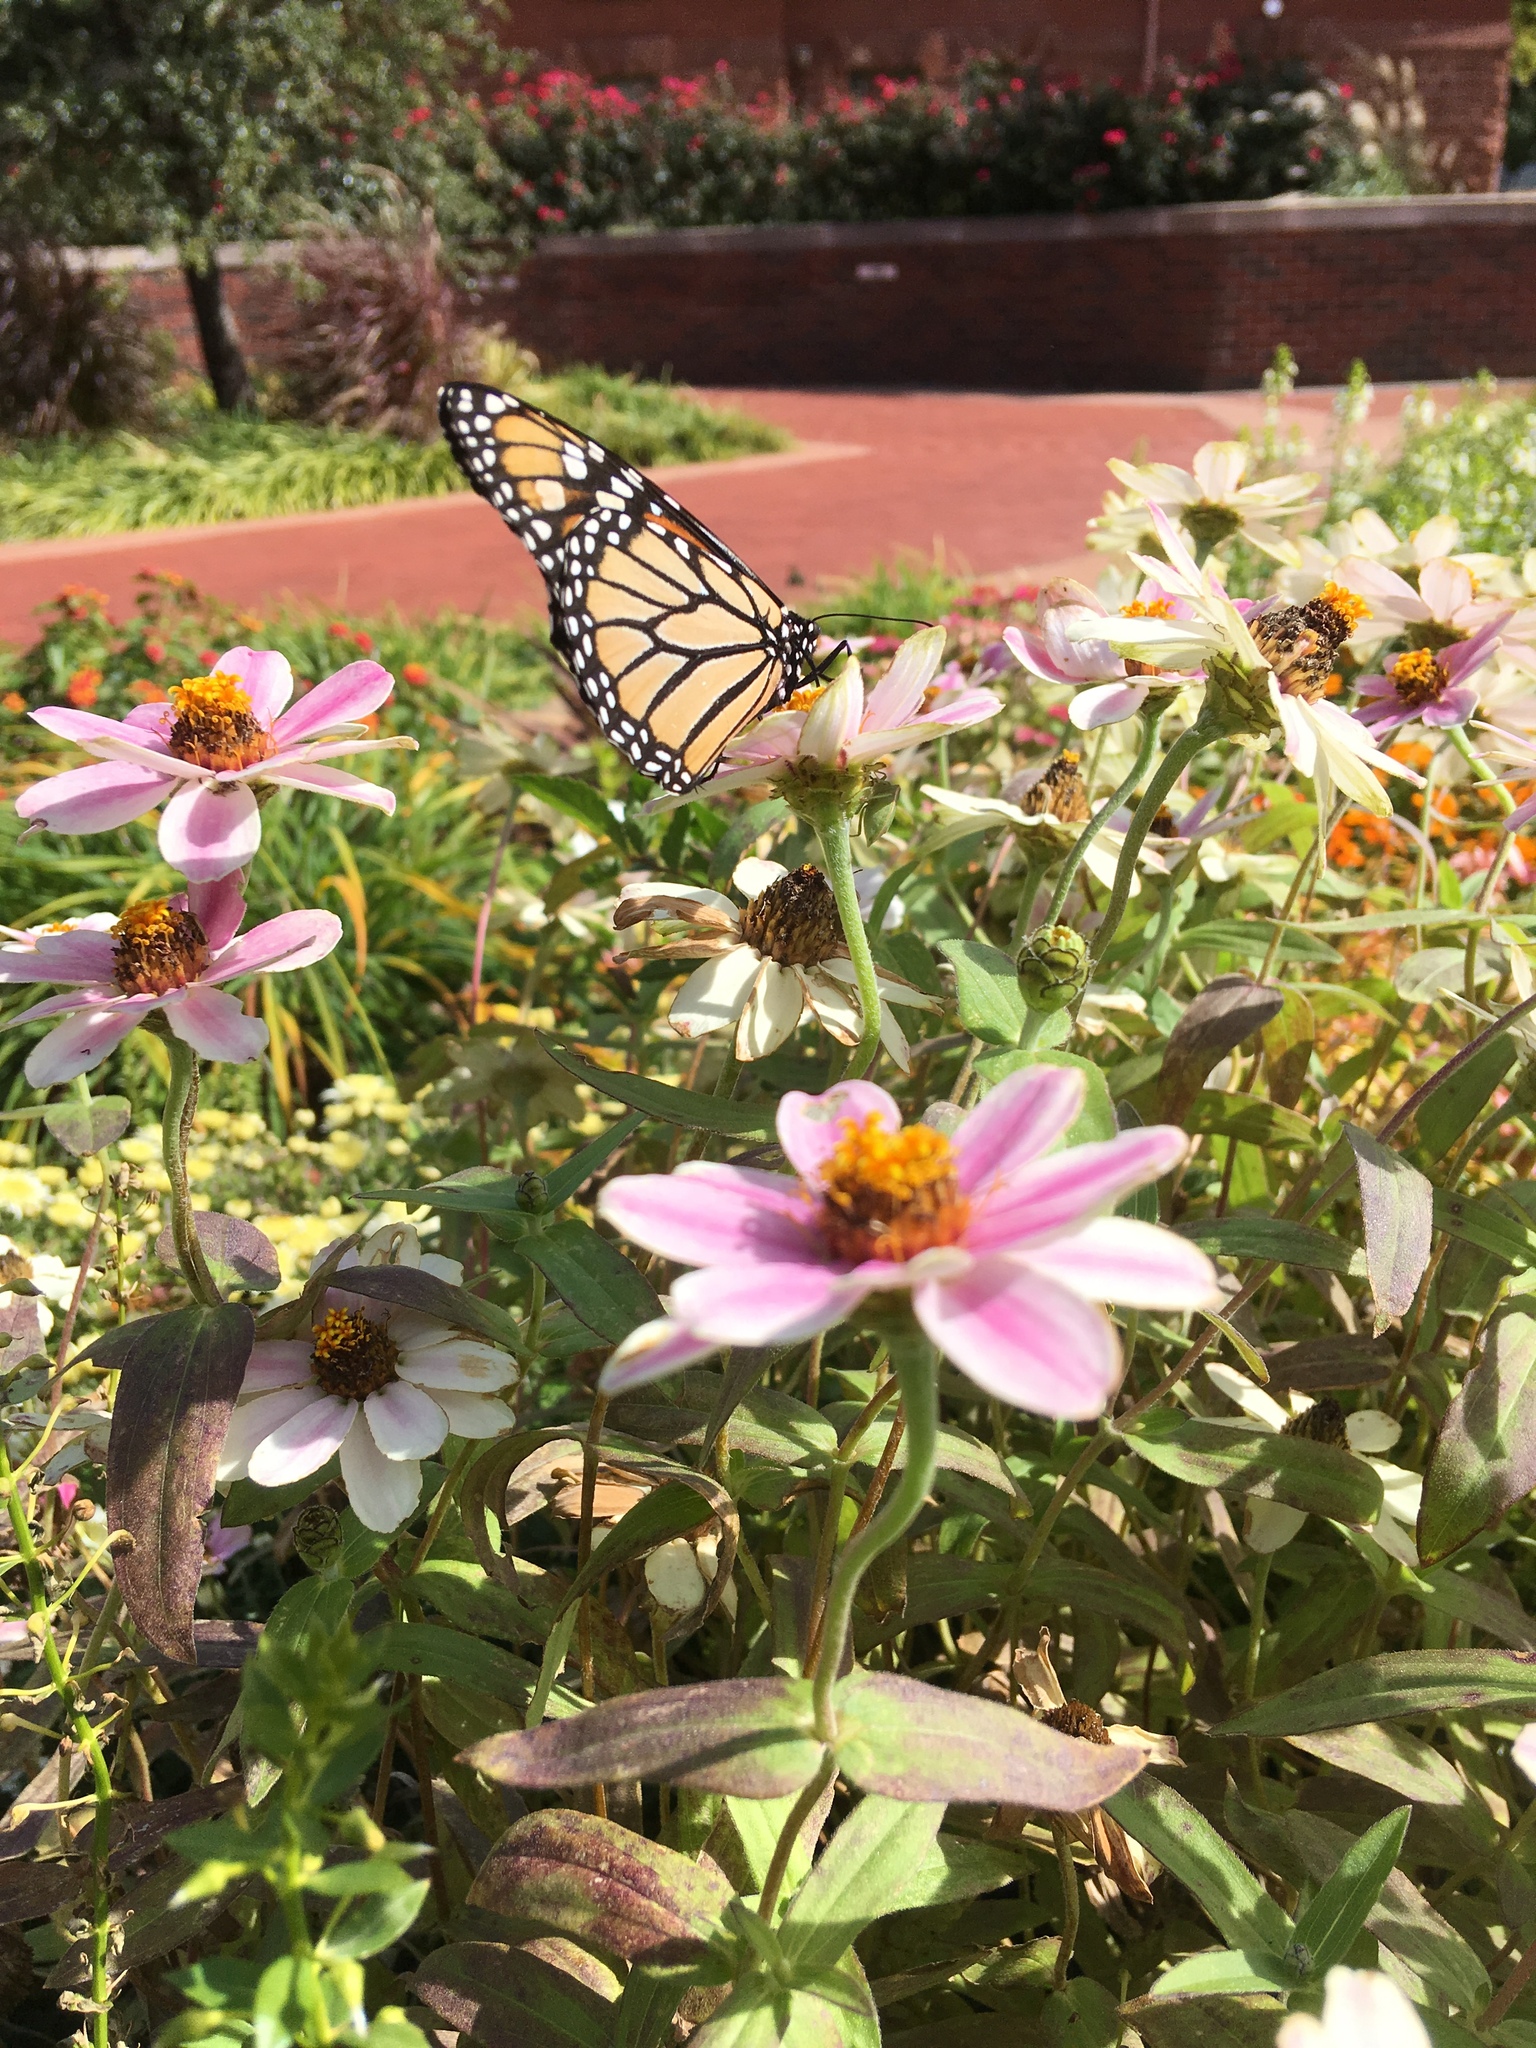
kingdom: Animalia
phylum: Arthropoda
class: Insecta
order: Lepidoptera
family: Nymphalidae
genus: Danaus
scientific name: Danaus plexippus
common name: Monarch
